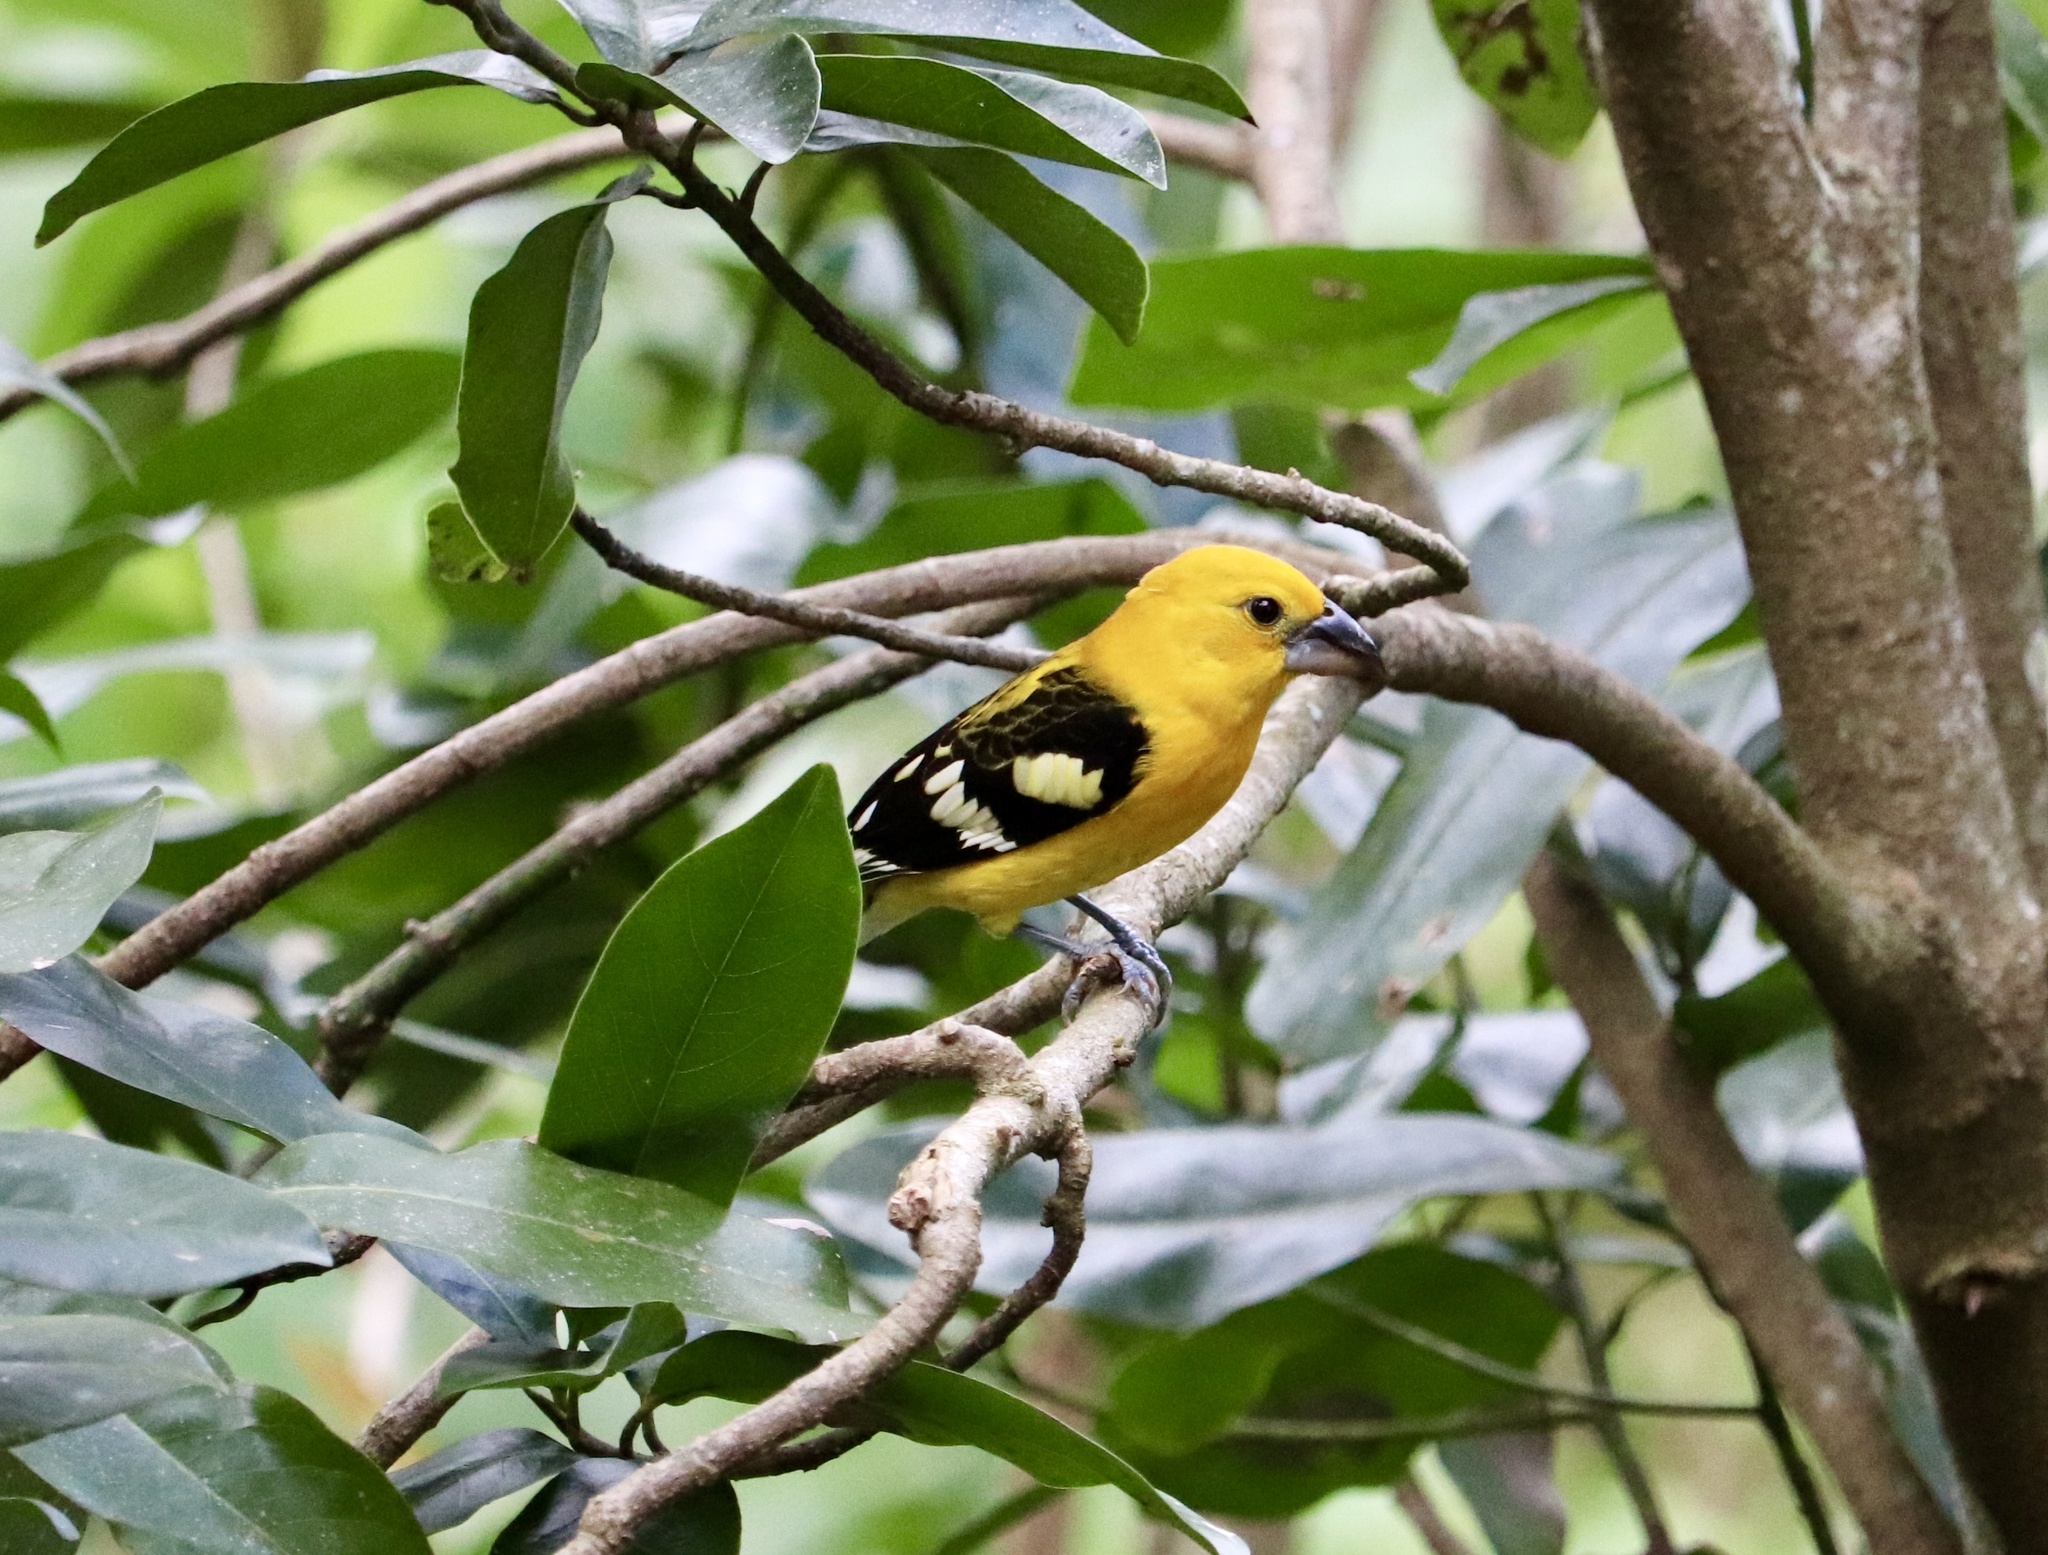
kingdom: Animalia
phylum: Chordata
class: Aves
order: Passeriformes
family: Cardinalidae
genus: Pheucticus
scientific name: Pheucticus chrysopeplus
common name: Yellow grosbeak
